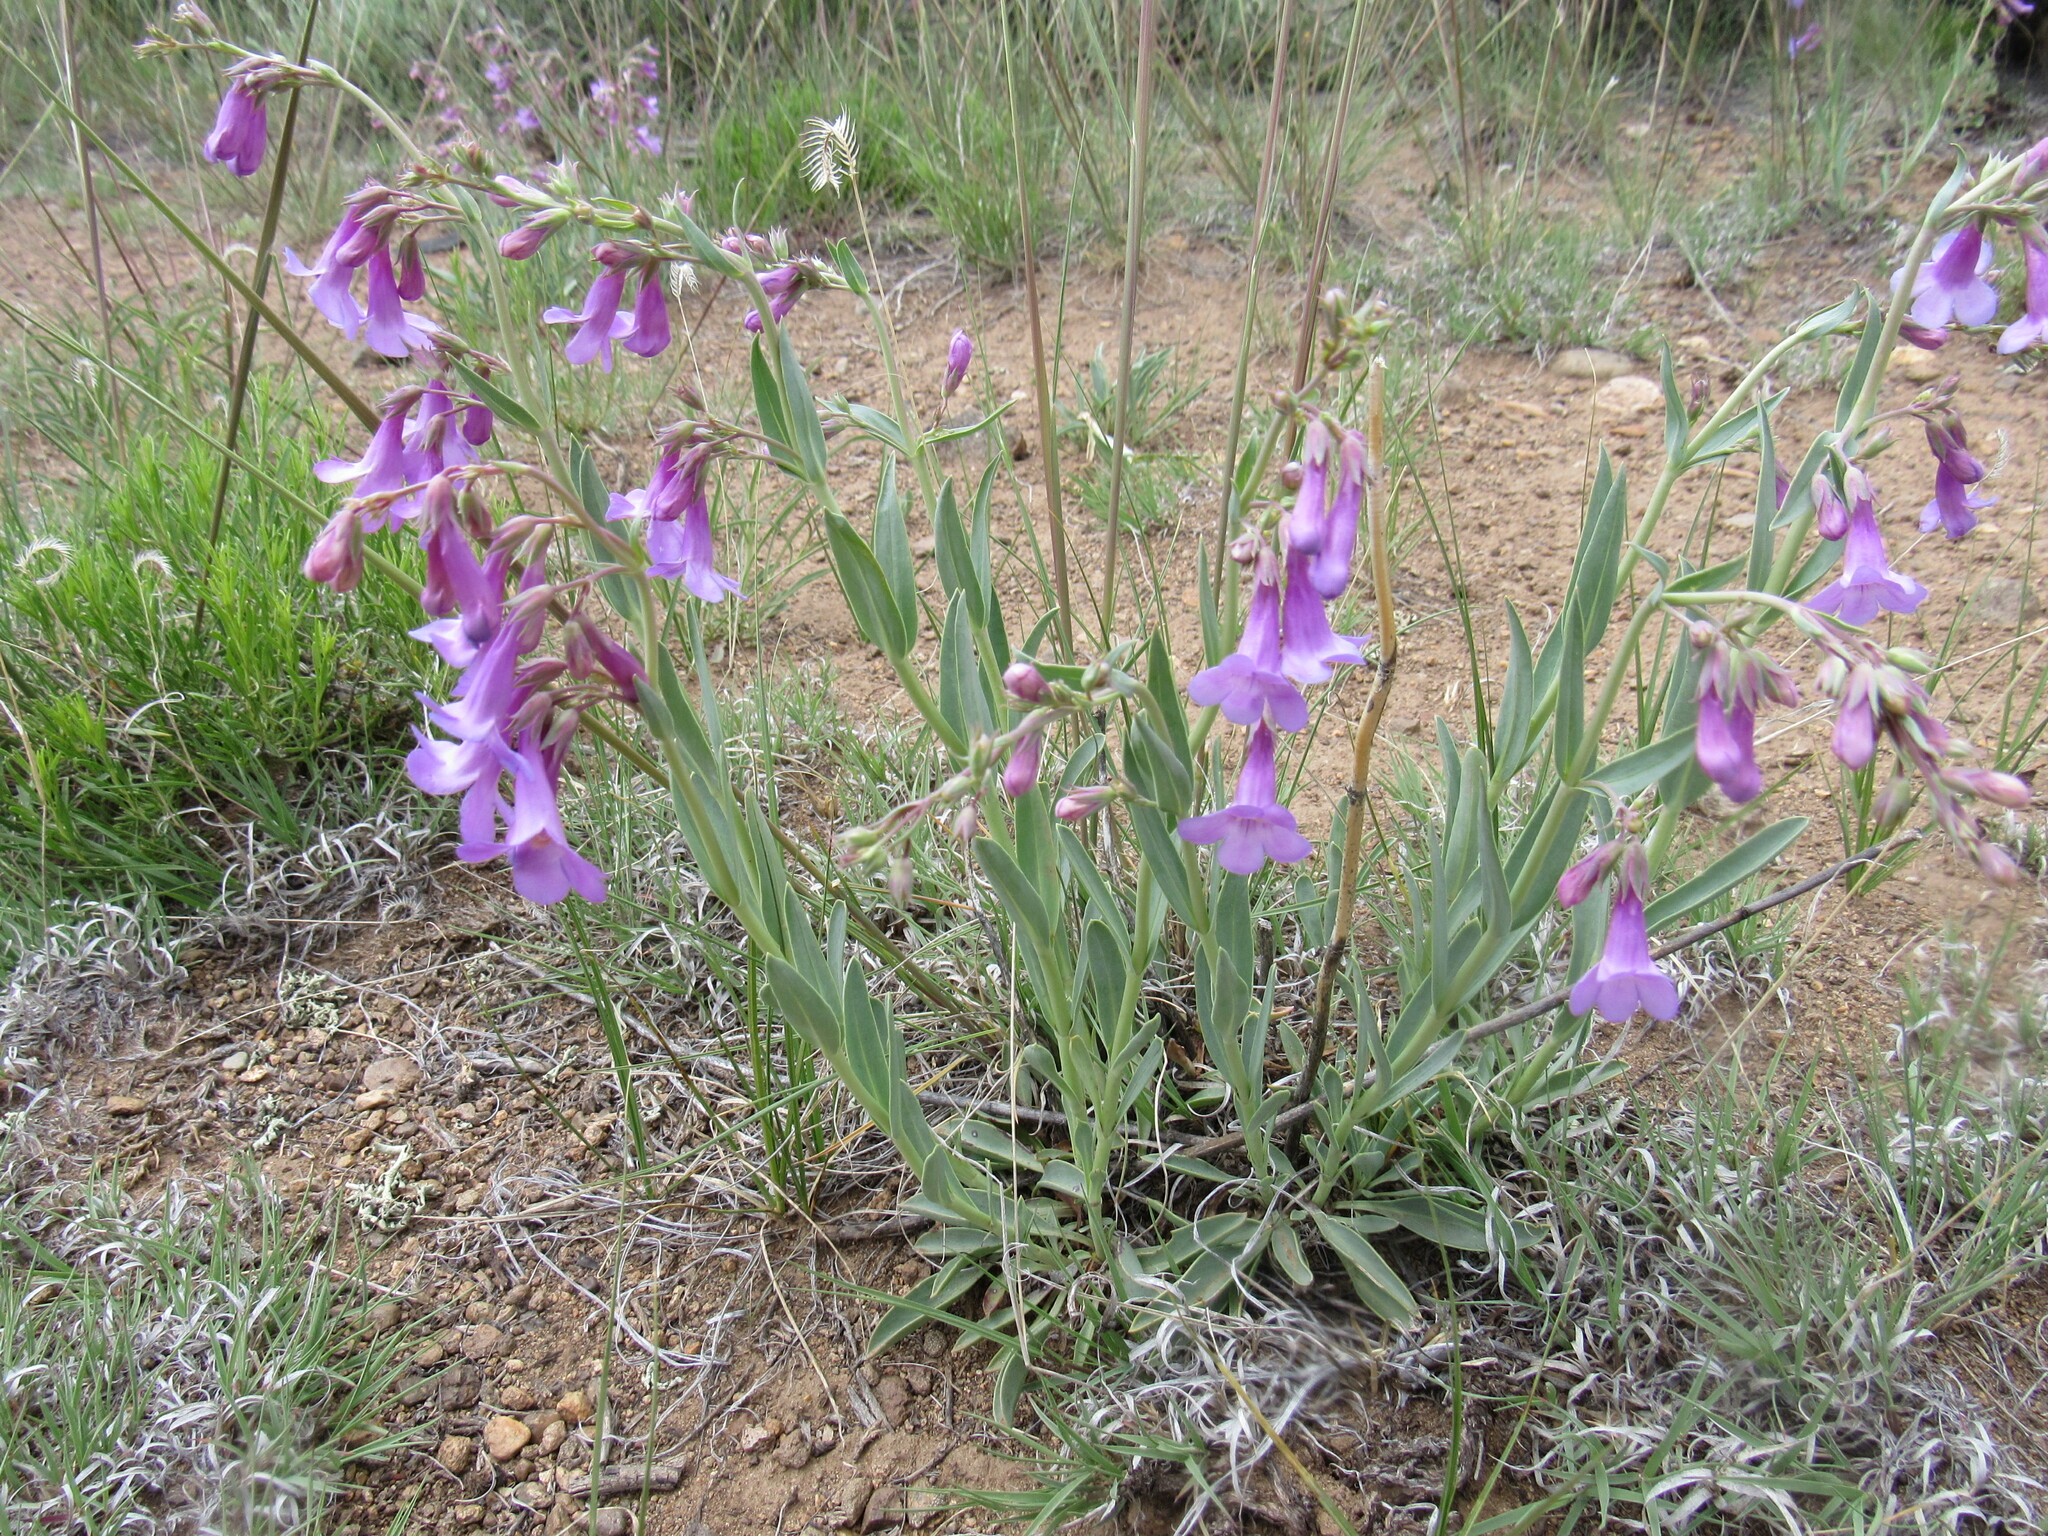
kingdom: Plantae
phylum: Tracheophyta
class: Magnoliopsida
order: Lamiales
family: Plantaginaceae
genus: Penstemon
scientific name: Penstemon secundiflorus
